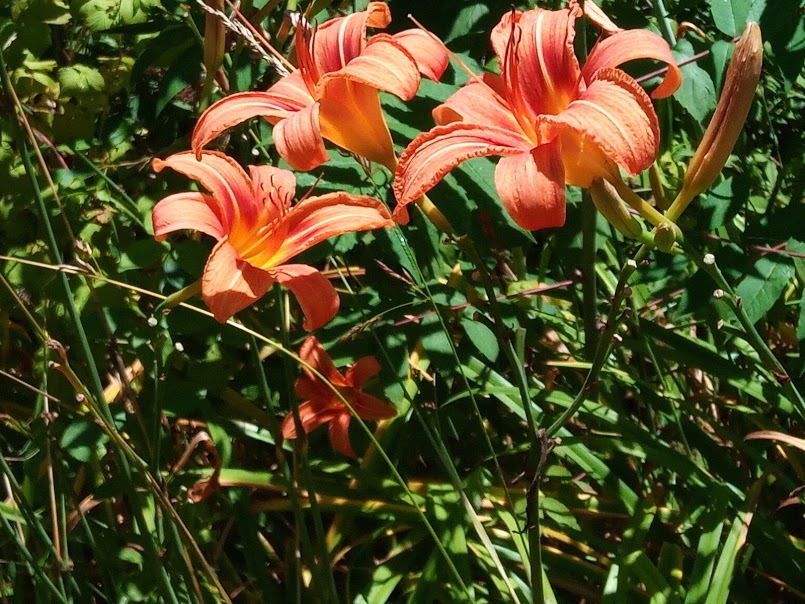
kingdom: Plantae
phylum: Tracheophyta
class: Liliopsida
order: Asparagales
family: Asphodelaceae
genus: Hemerocallis
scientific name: Hemerocallis fulva
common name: Orange day-lily
